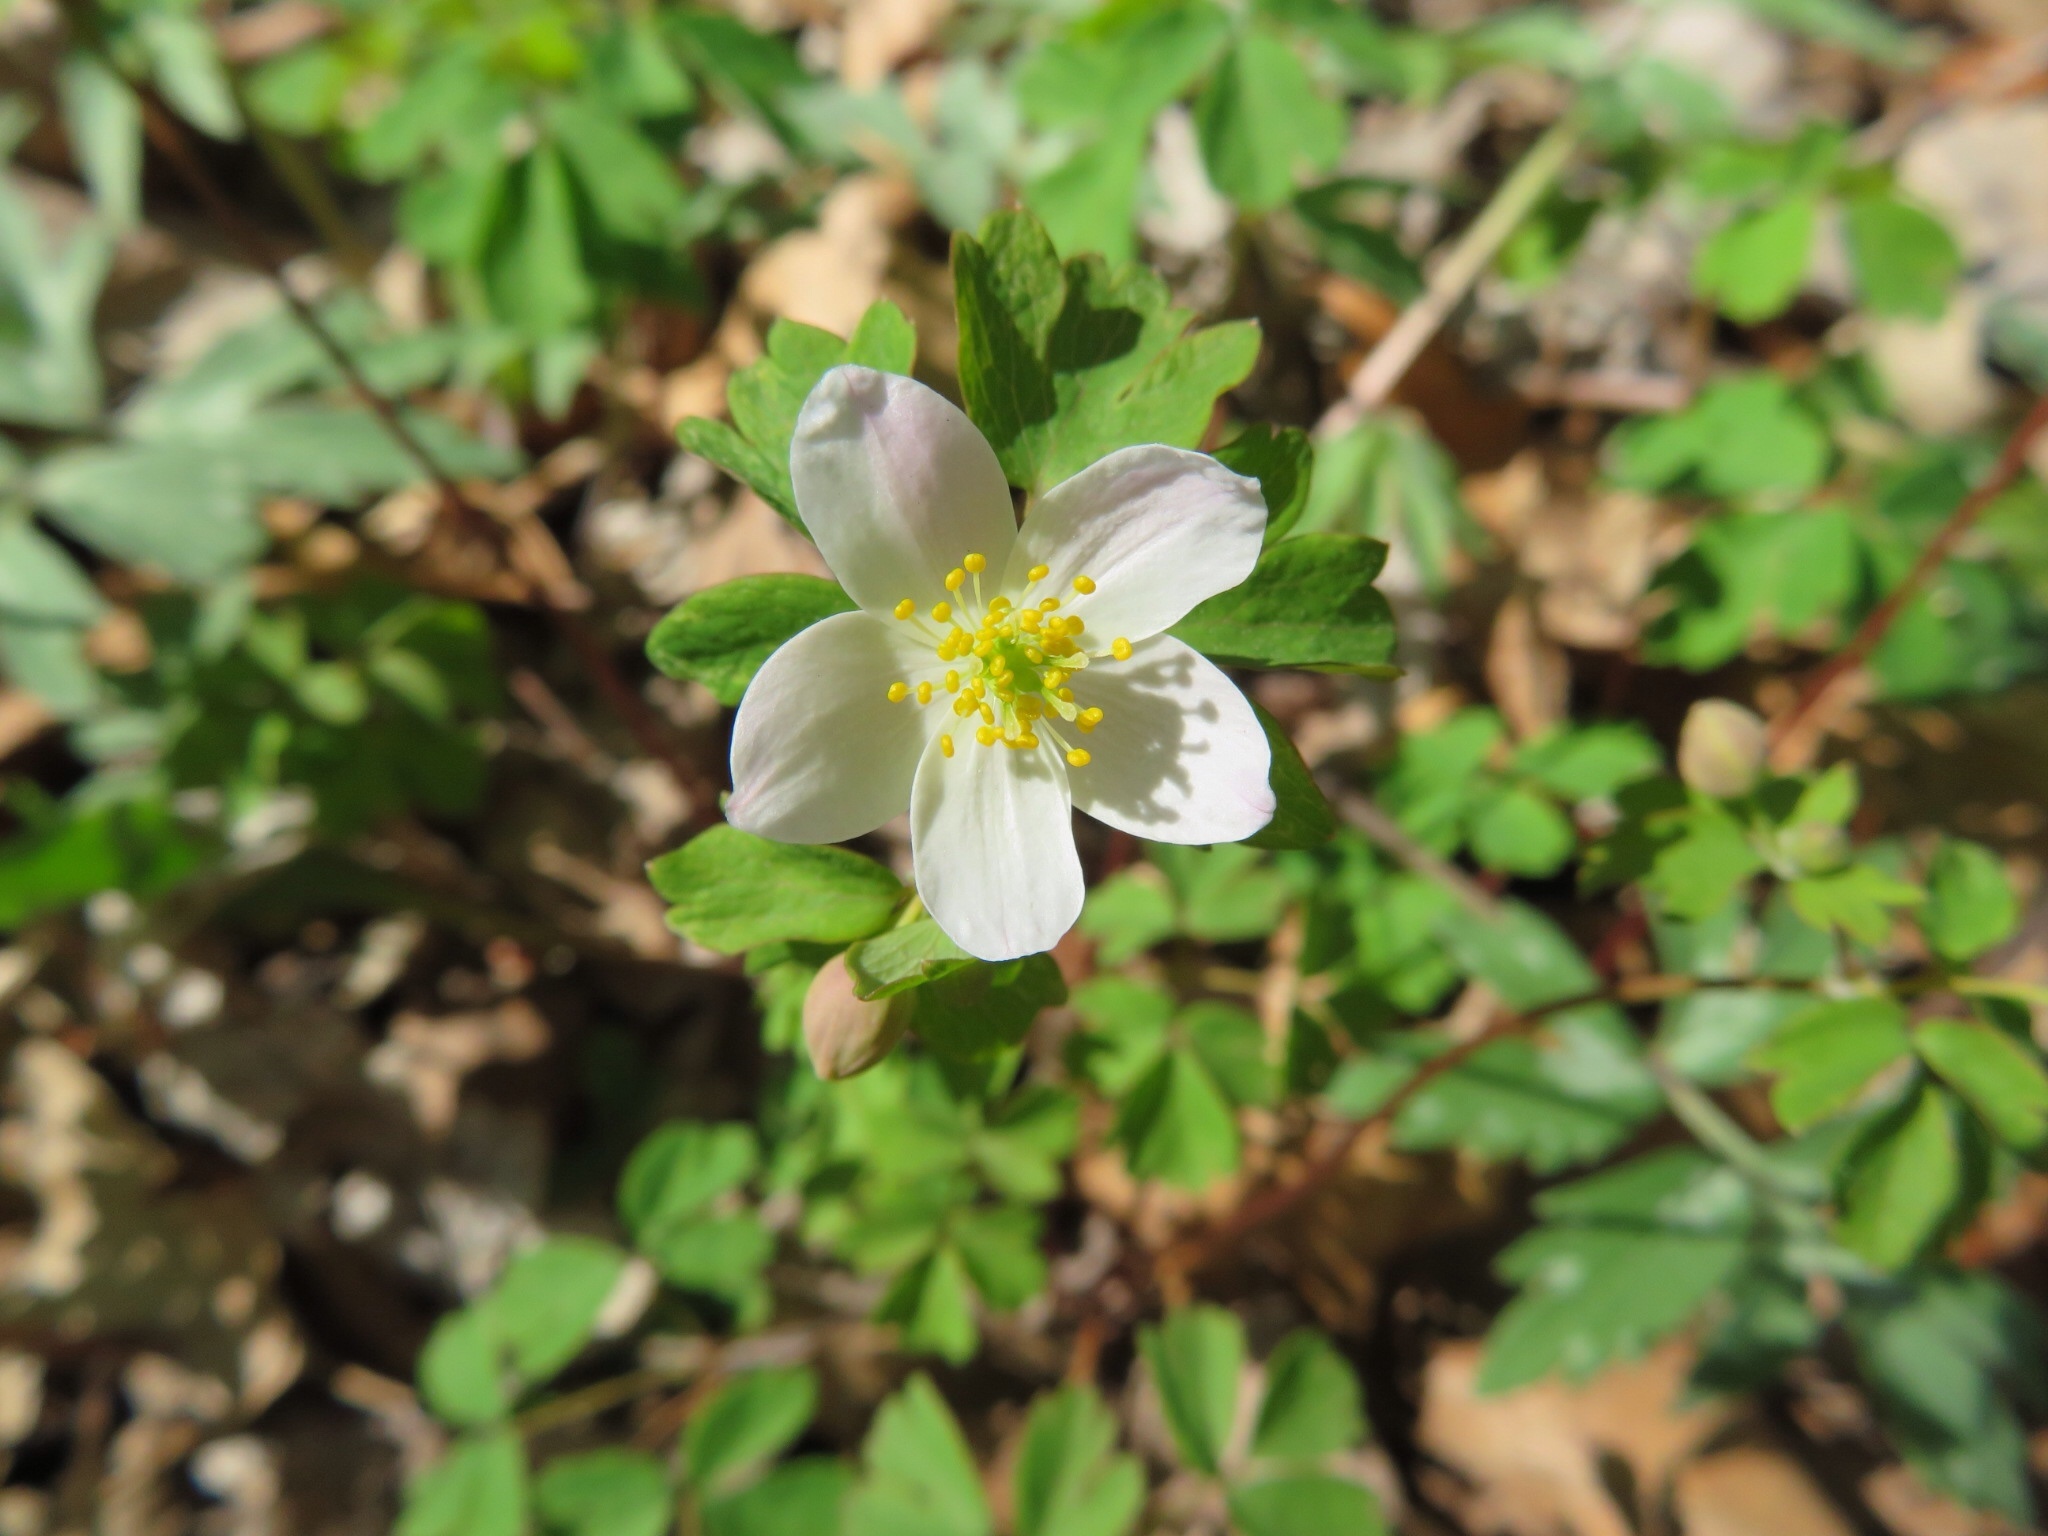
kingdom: Plantae
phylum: Tracheophyta
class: Magnoliopsida
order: Ranunculales
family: Ranunculaceae
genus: Enemion
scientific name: Enemion biternatum
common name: Eastern false rue-anemone
